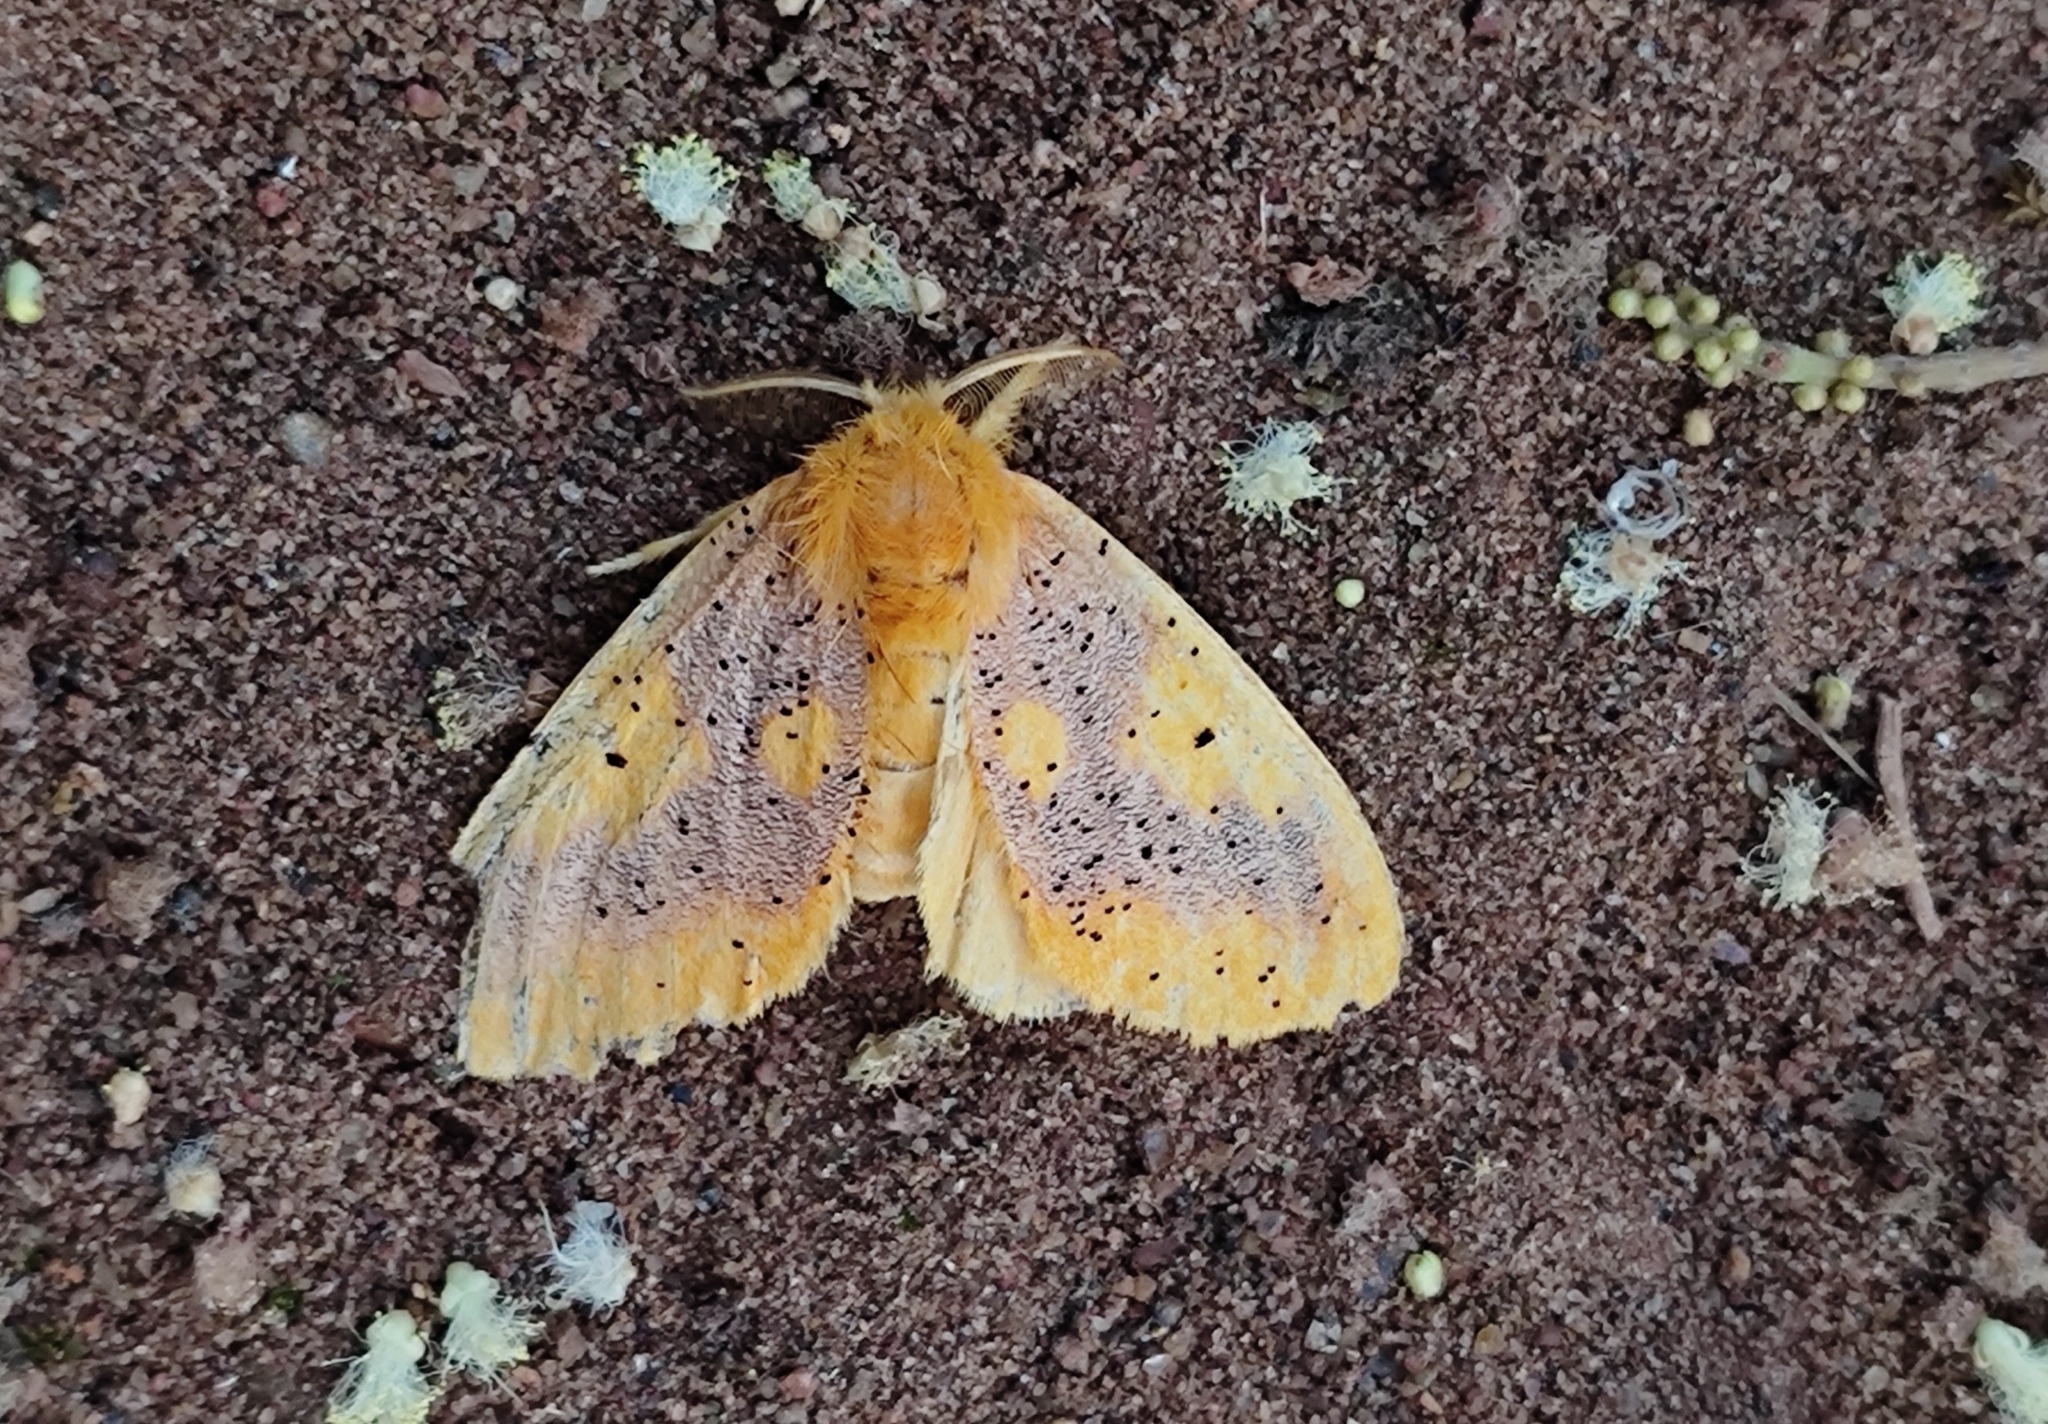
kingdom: Animalia
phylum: Arthropoda
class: Insecta
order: Lepidoptera
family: Erebidae
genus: Nygmia
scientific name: Nygmia icilia
